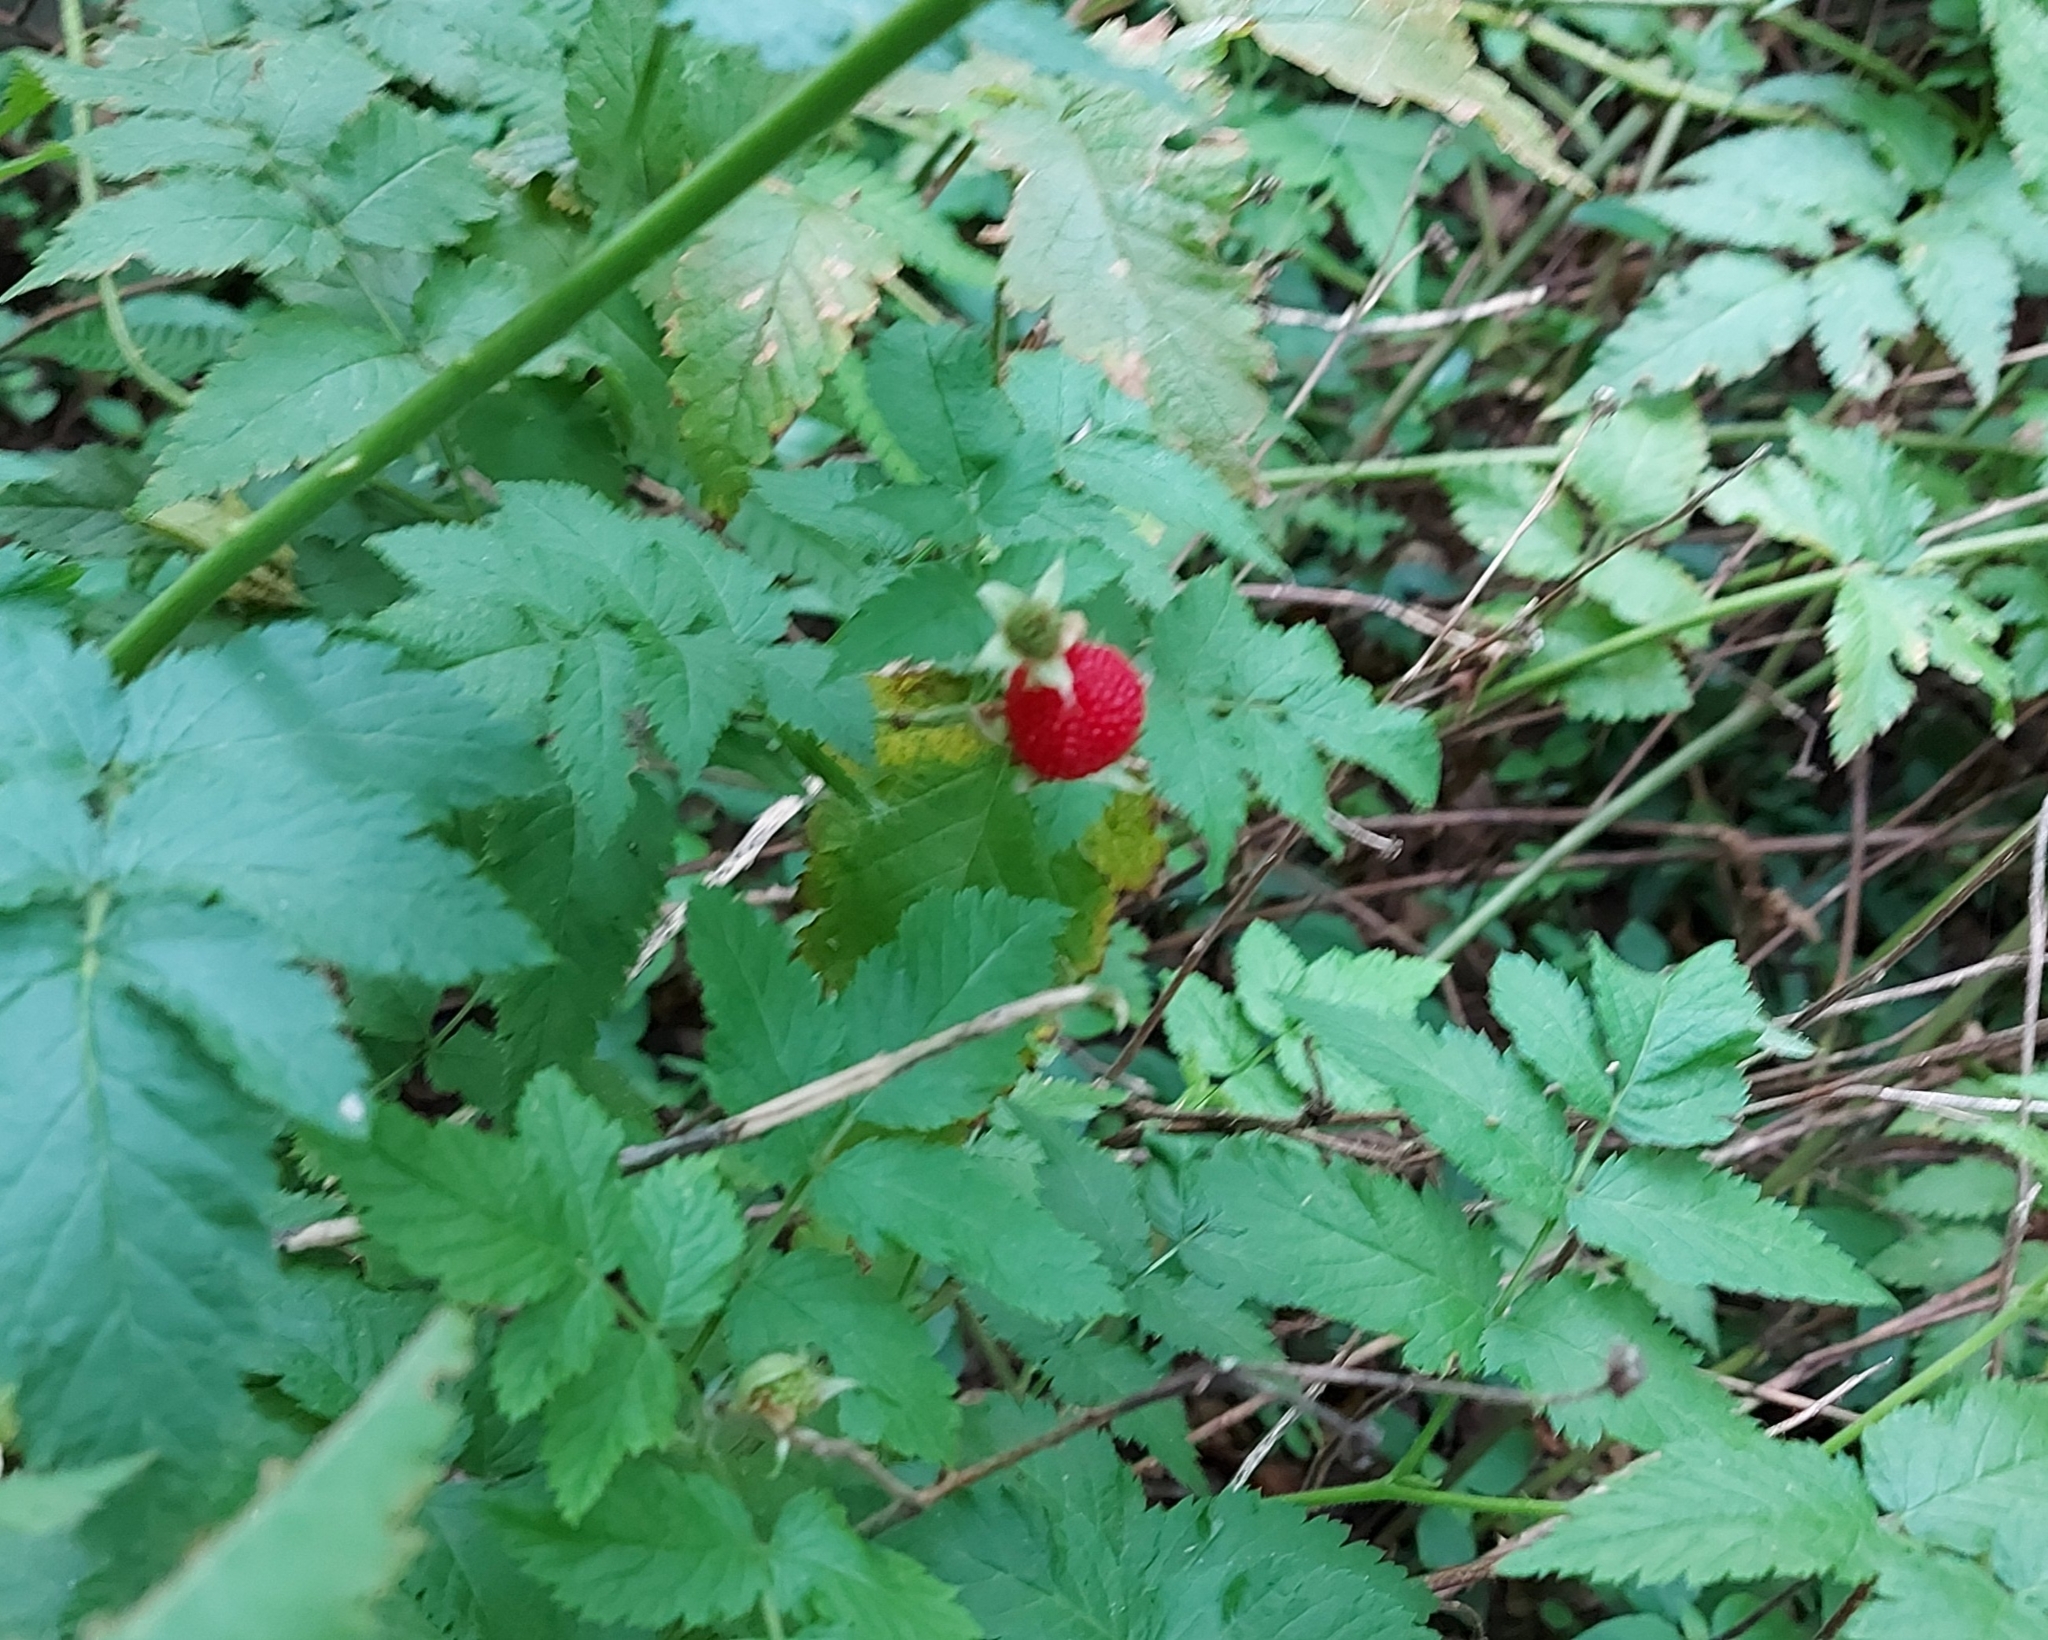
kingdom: Plantae
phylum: Tracheophyta
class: Magnoliopsida
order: Rosales
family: Rosaceae
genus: Rubus
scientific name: Rubus rosifolius
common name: Roseleaf raspberry
